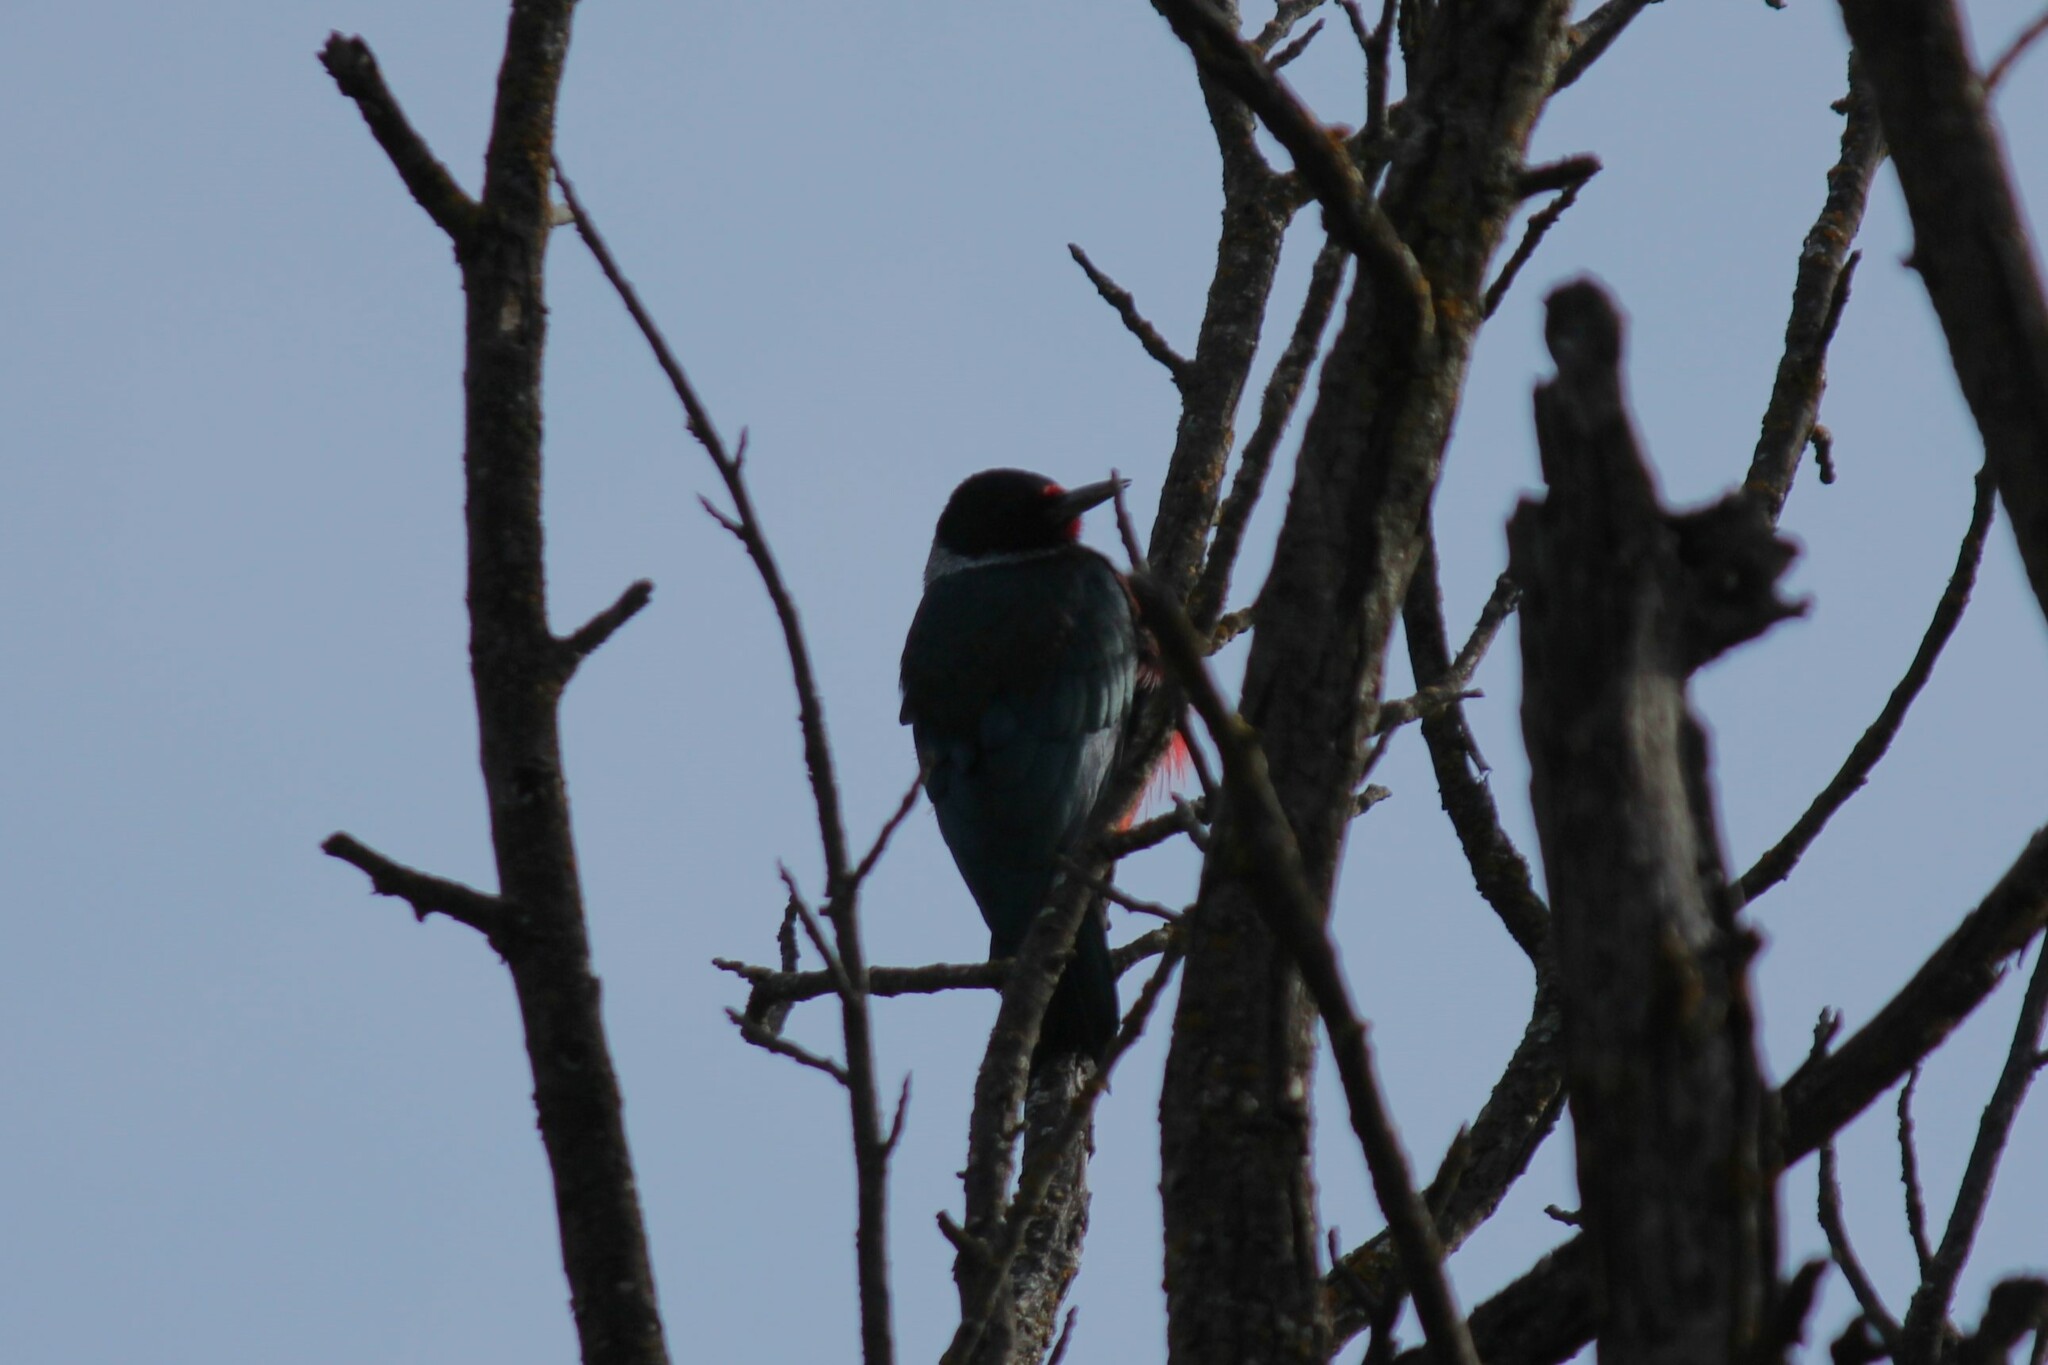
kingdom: Animalia
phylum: Chordata
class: Aves
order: Piciformes
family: Picidae
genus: Melanerpes
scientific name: Melanerpes lewis
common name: Lewis's woodpecker
